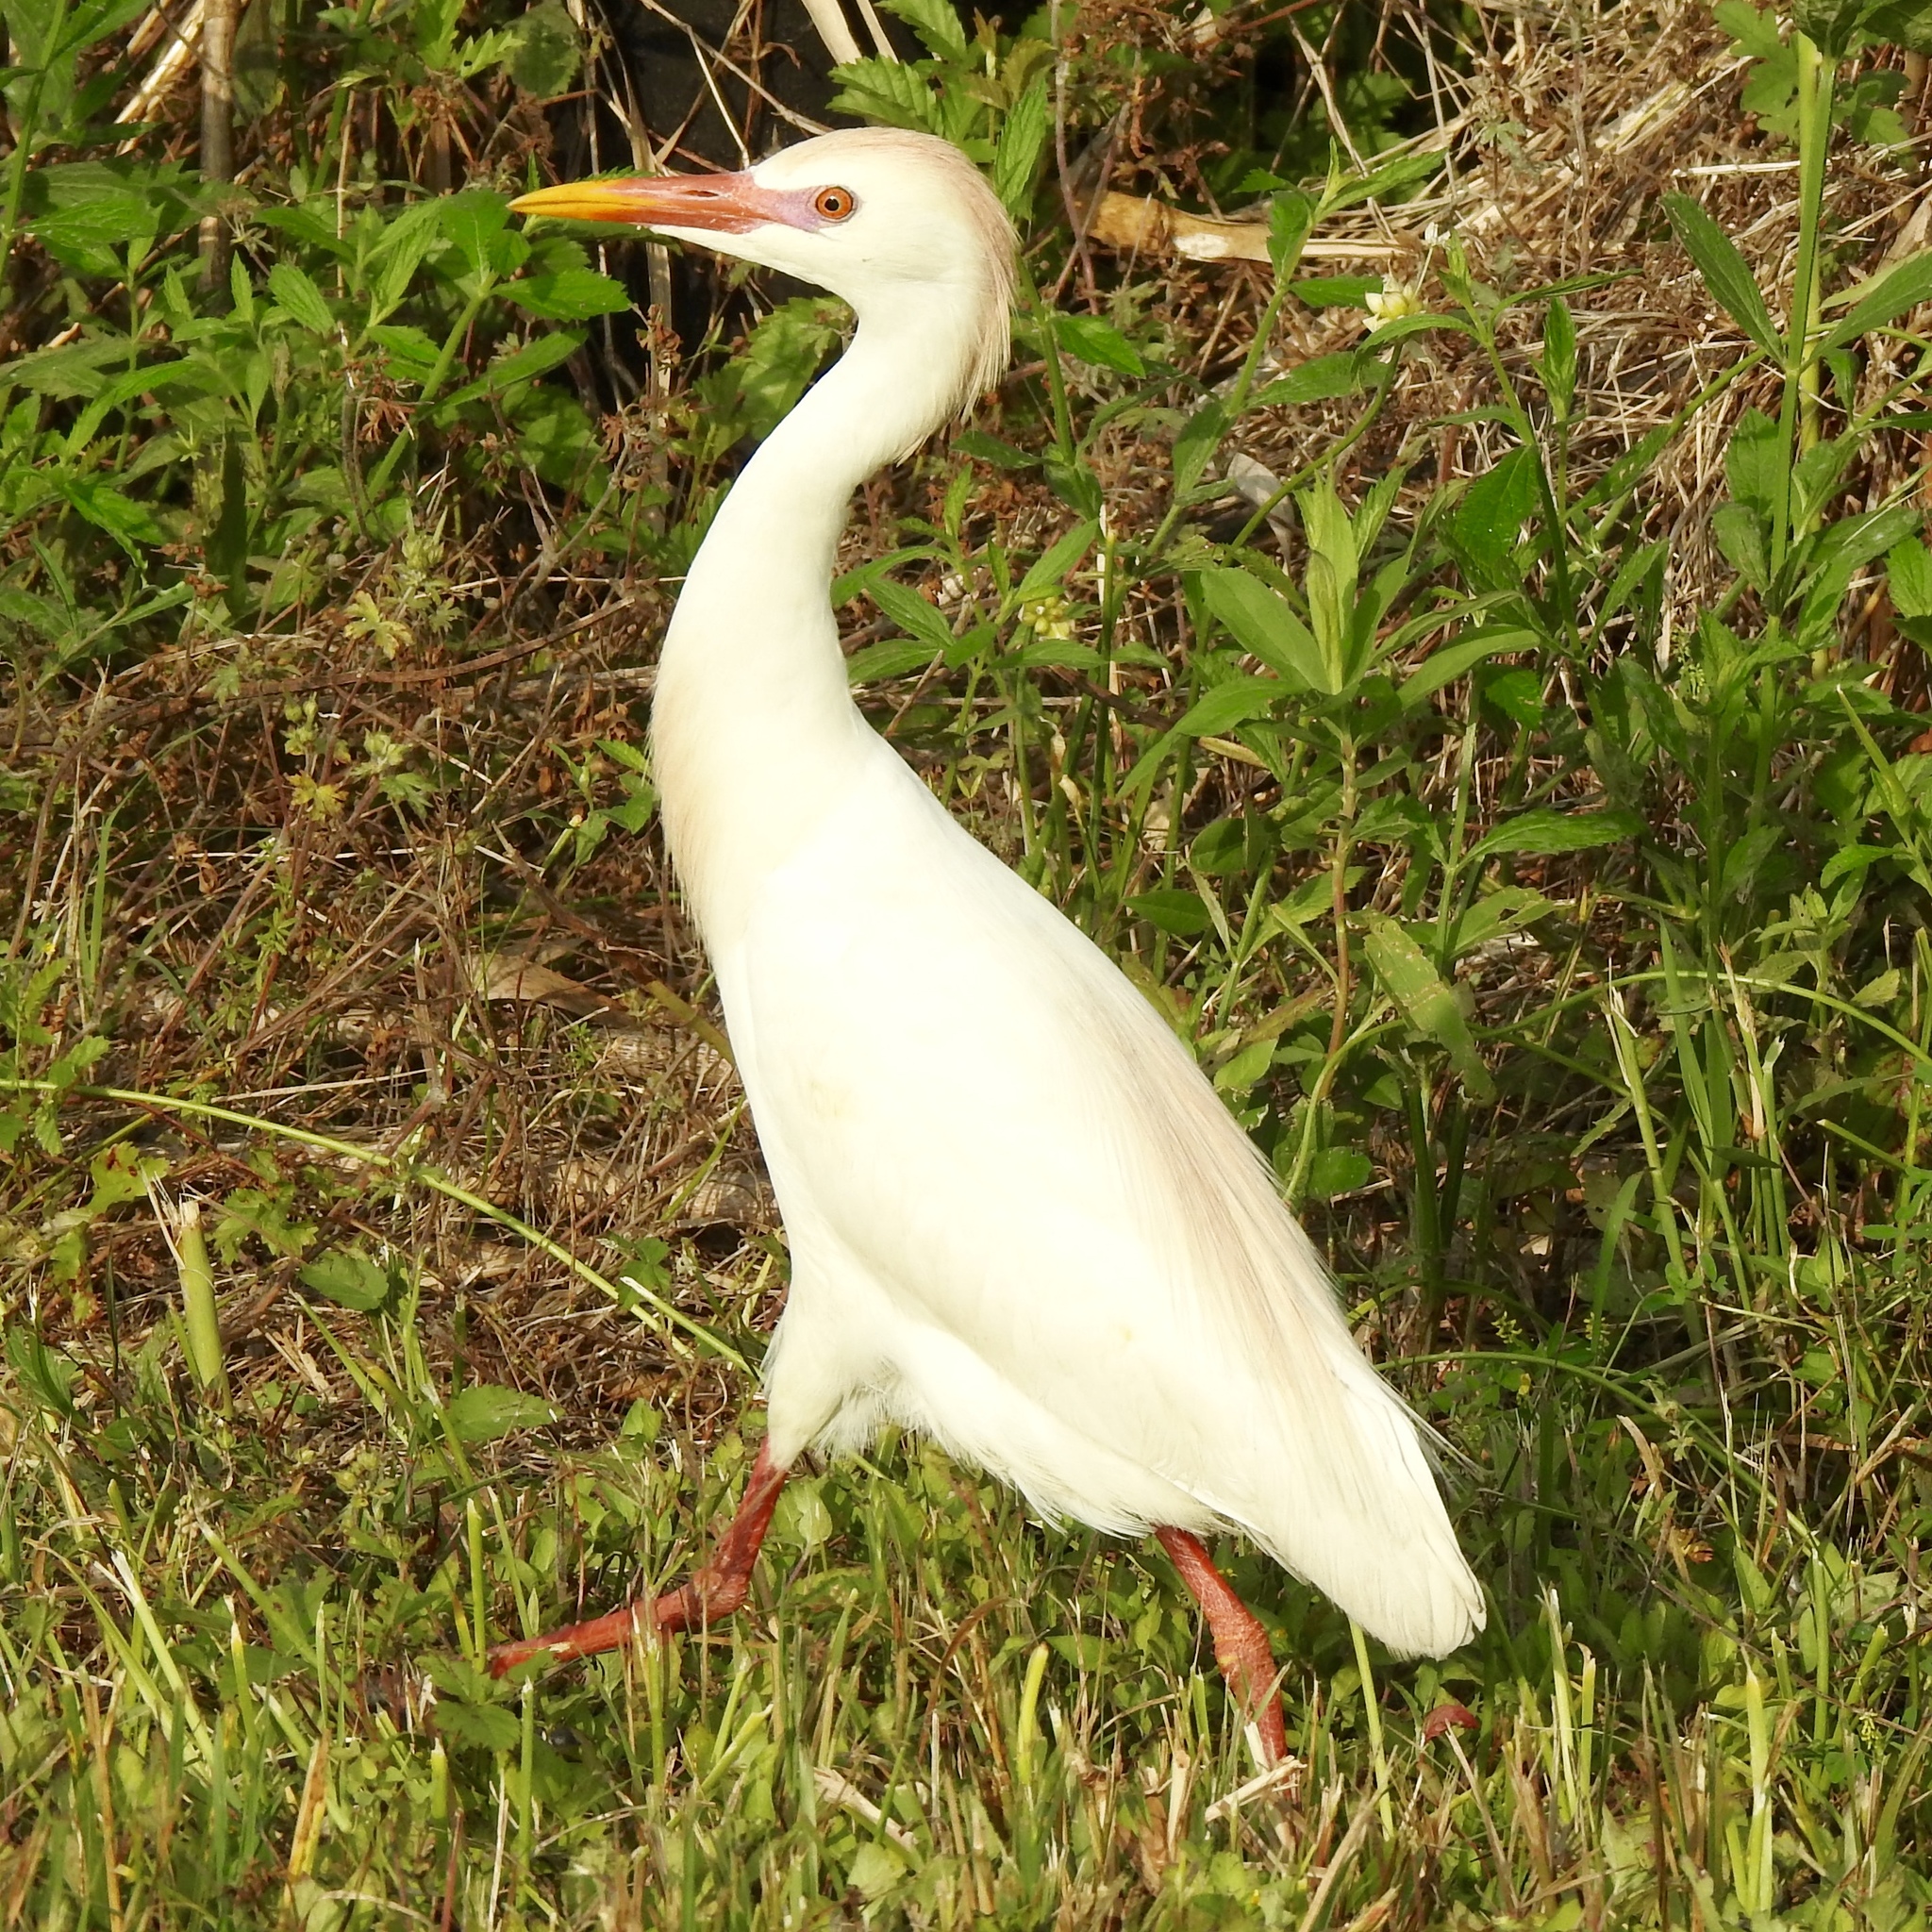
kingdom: Animalia
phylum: Chordata
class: Aves
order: Pelecaniformes
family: Ardeidae
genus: Bubulcus
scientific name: Bubulcus ibis
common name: Cattle egret
